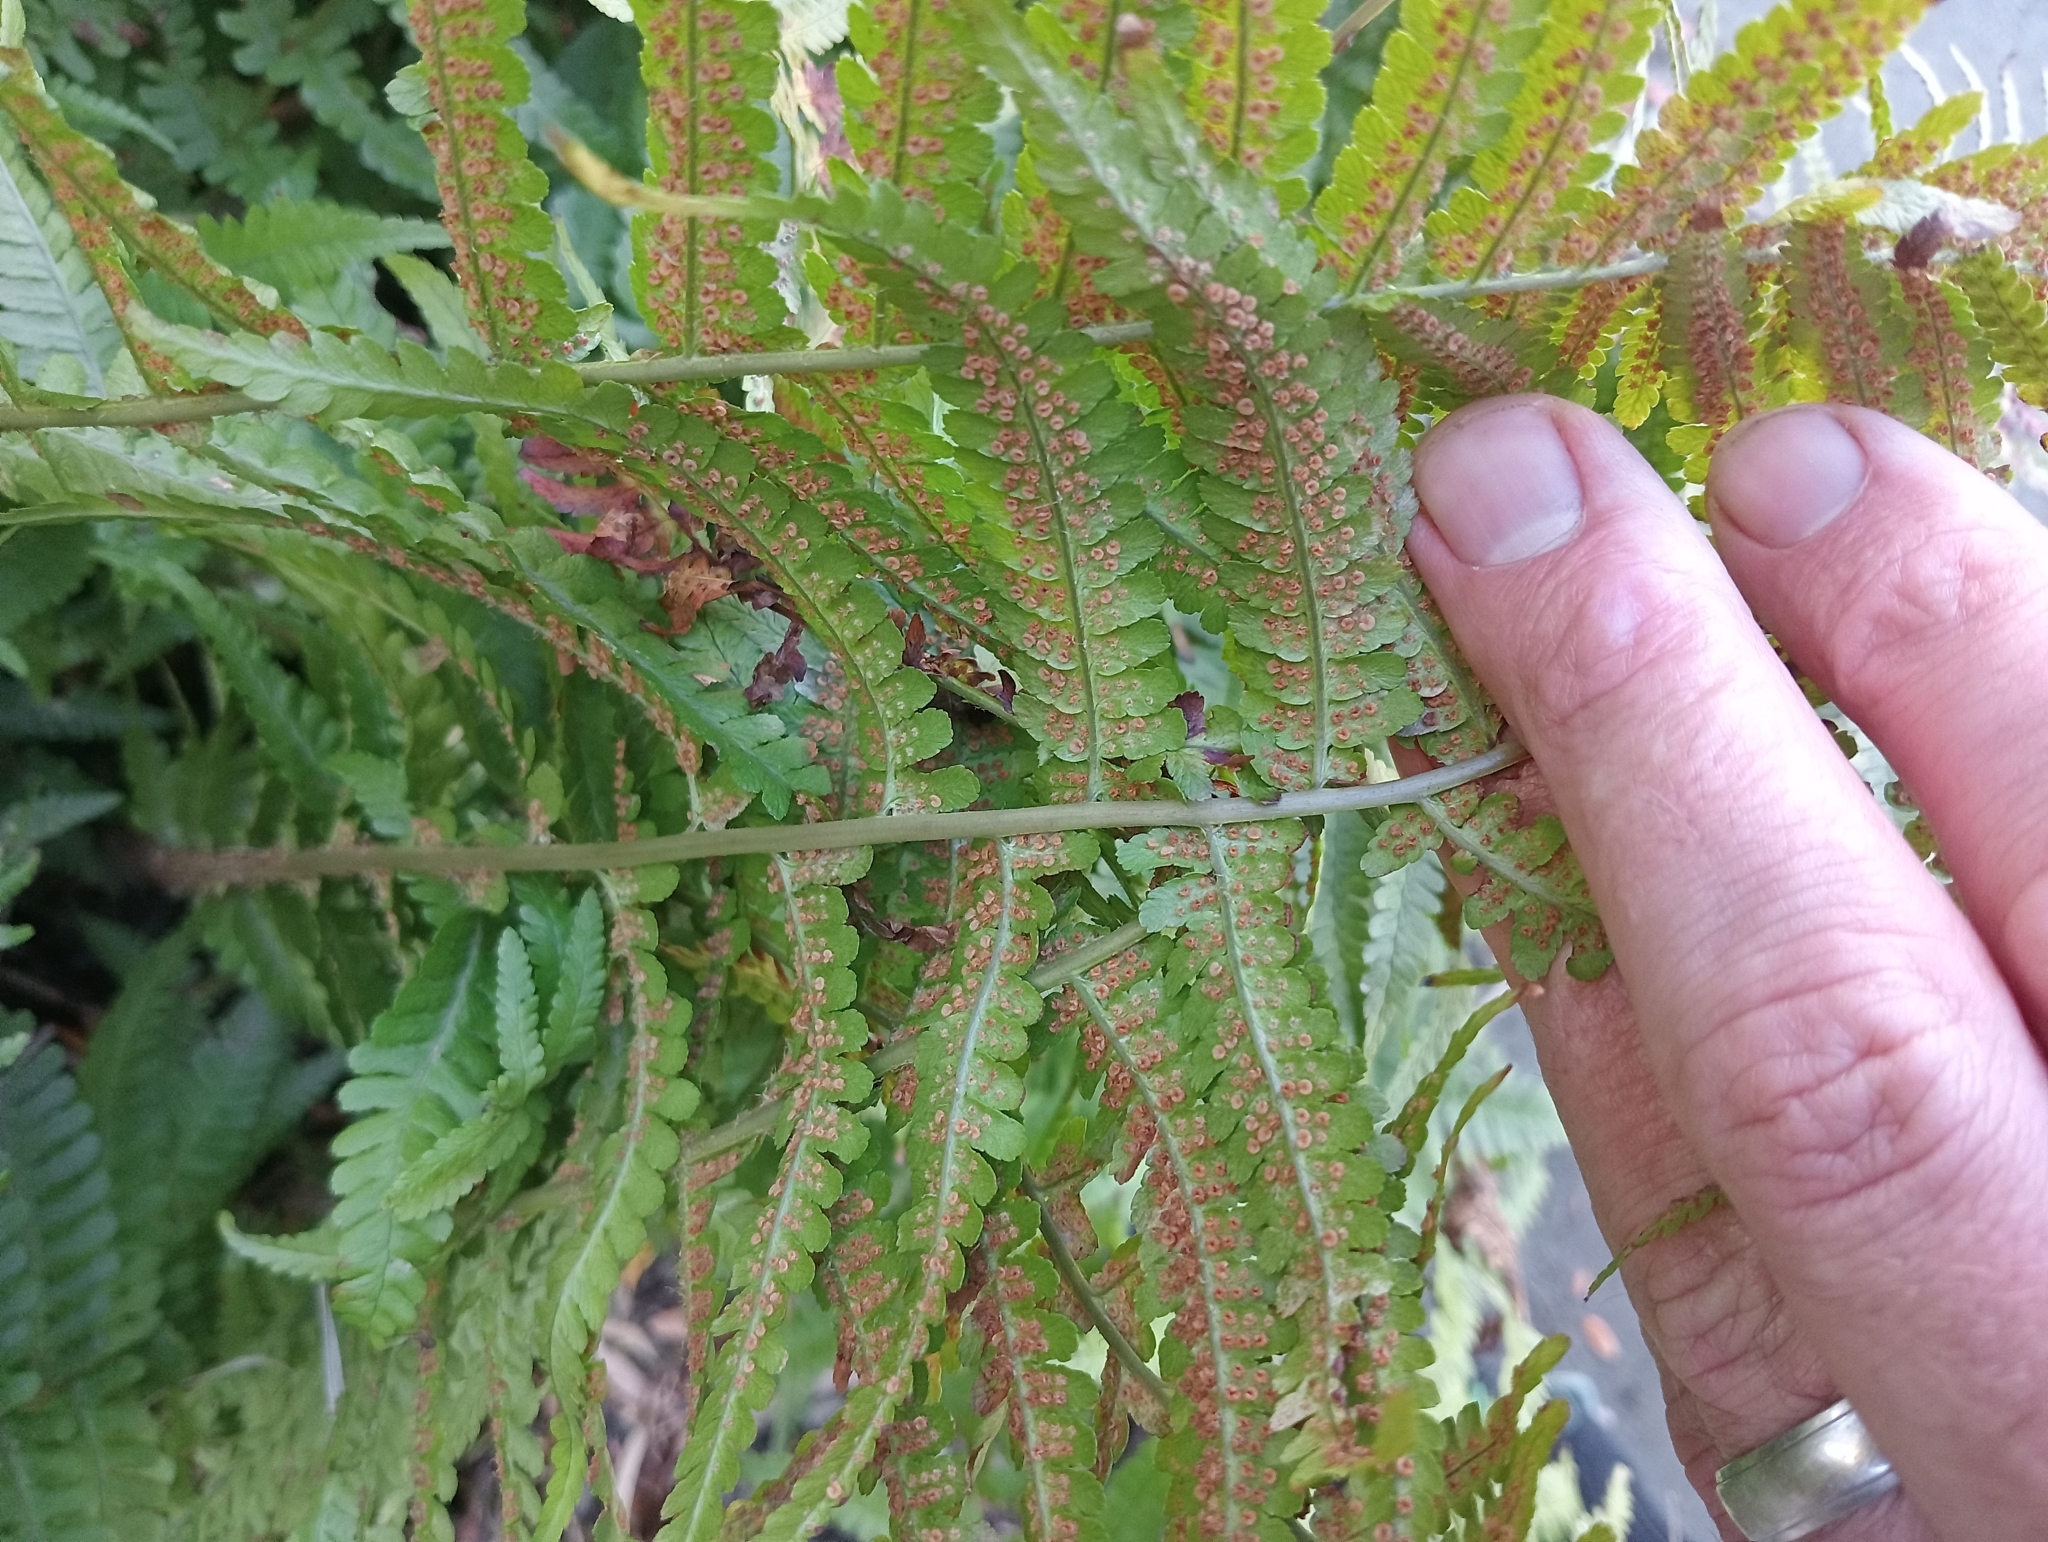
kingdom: Plantae
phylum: Tracheophyta
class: Polypodiopsida
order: Polypodiales
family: Dryopteridaceae
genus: Dryopteris
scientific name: Dryopteris filix-mas
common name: Male fern
